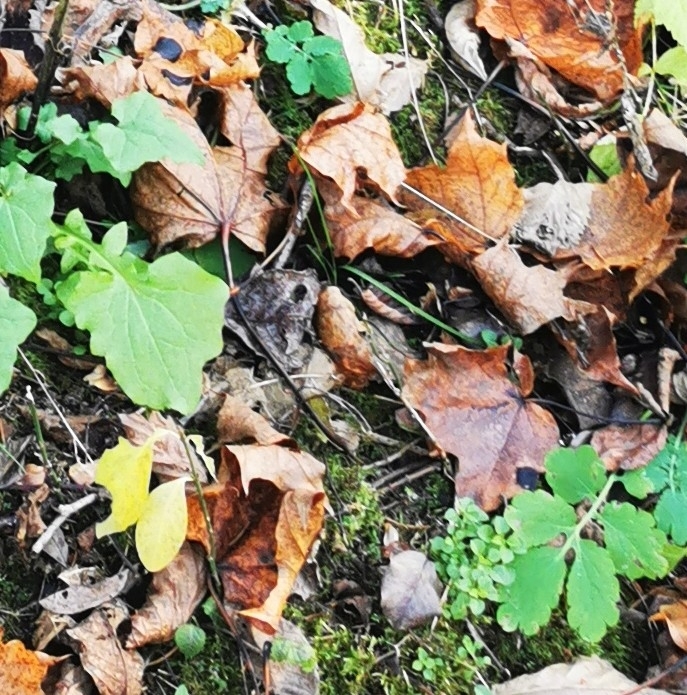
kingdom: Plantae
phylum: Tracheophyta
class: Magnoliopsida
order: Sapindales
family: Sapindaceae
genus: Acer
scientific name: Acer platanoides
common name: Norway maple
